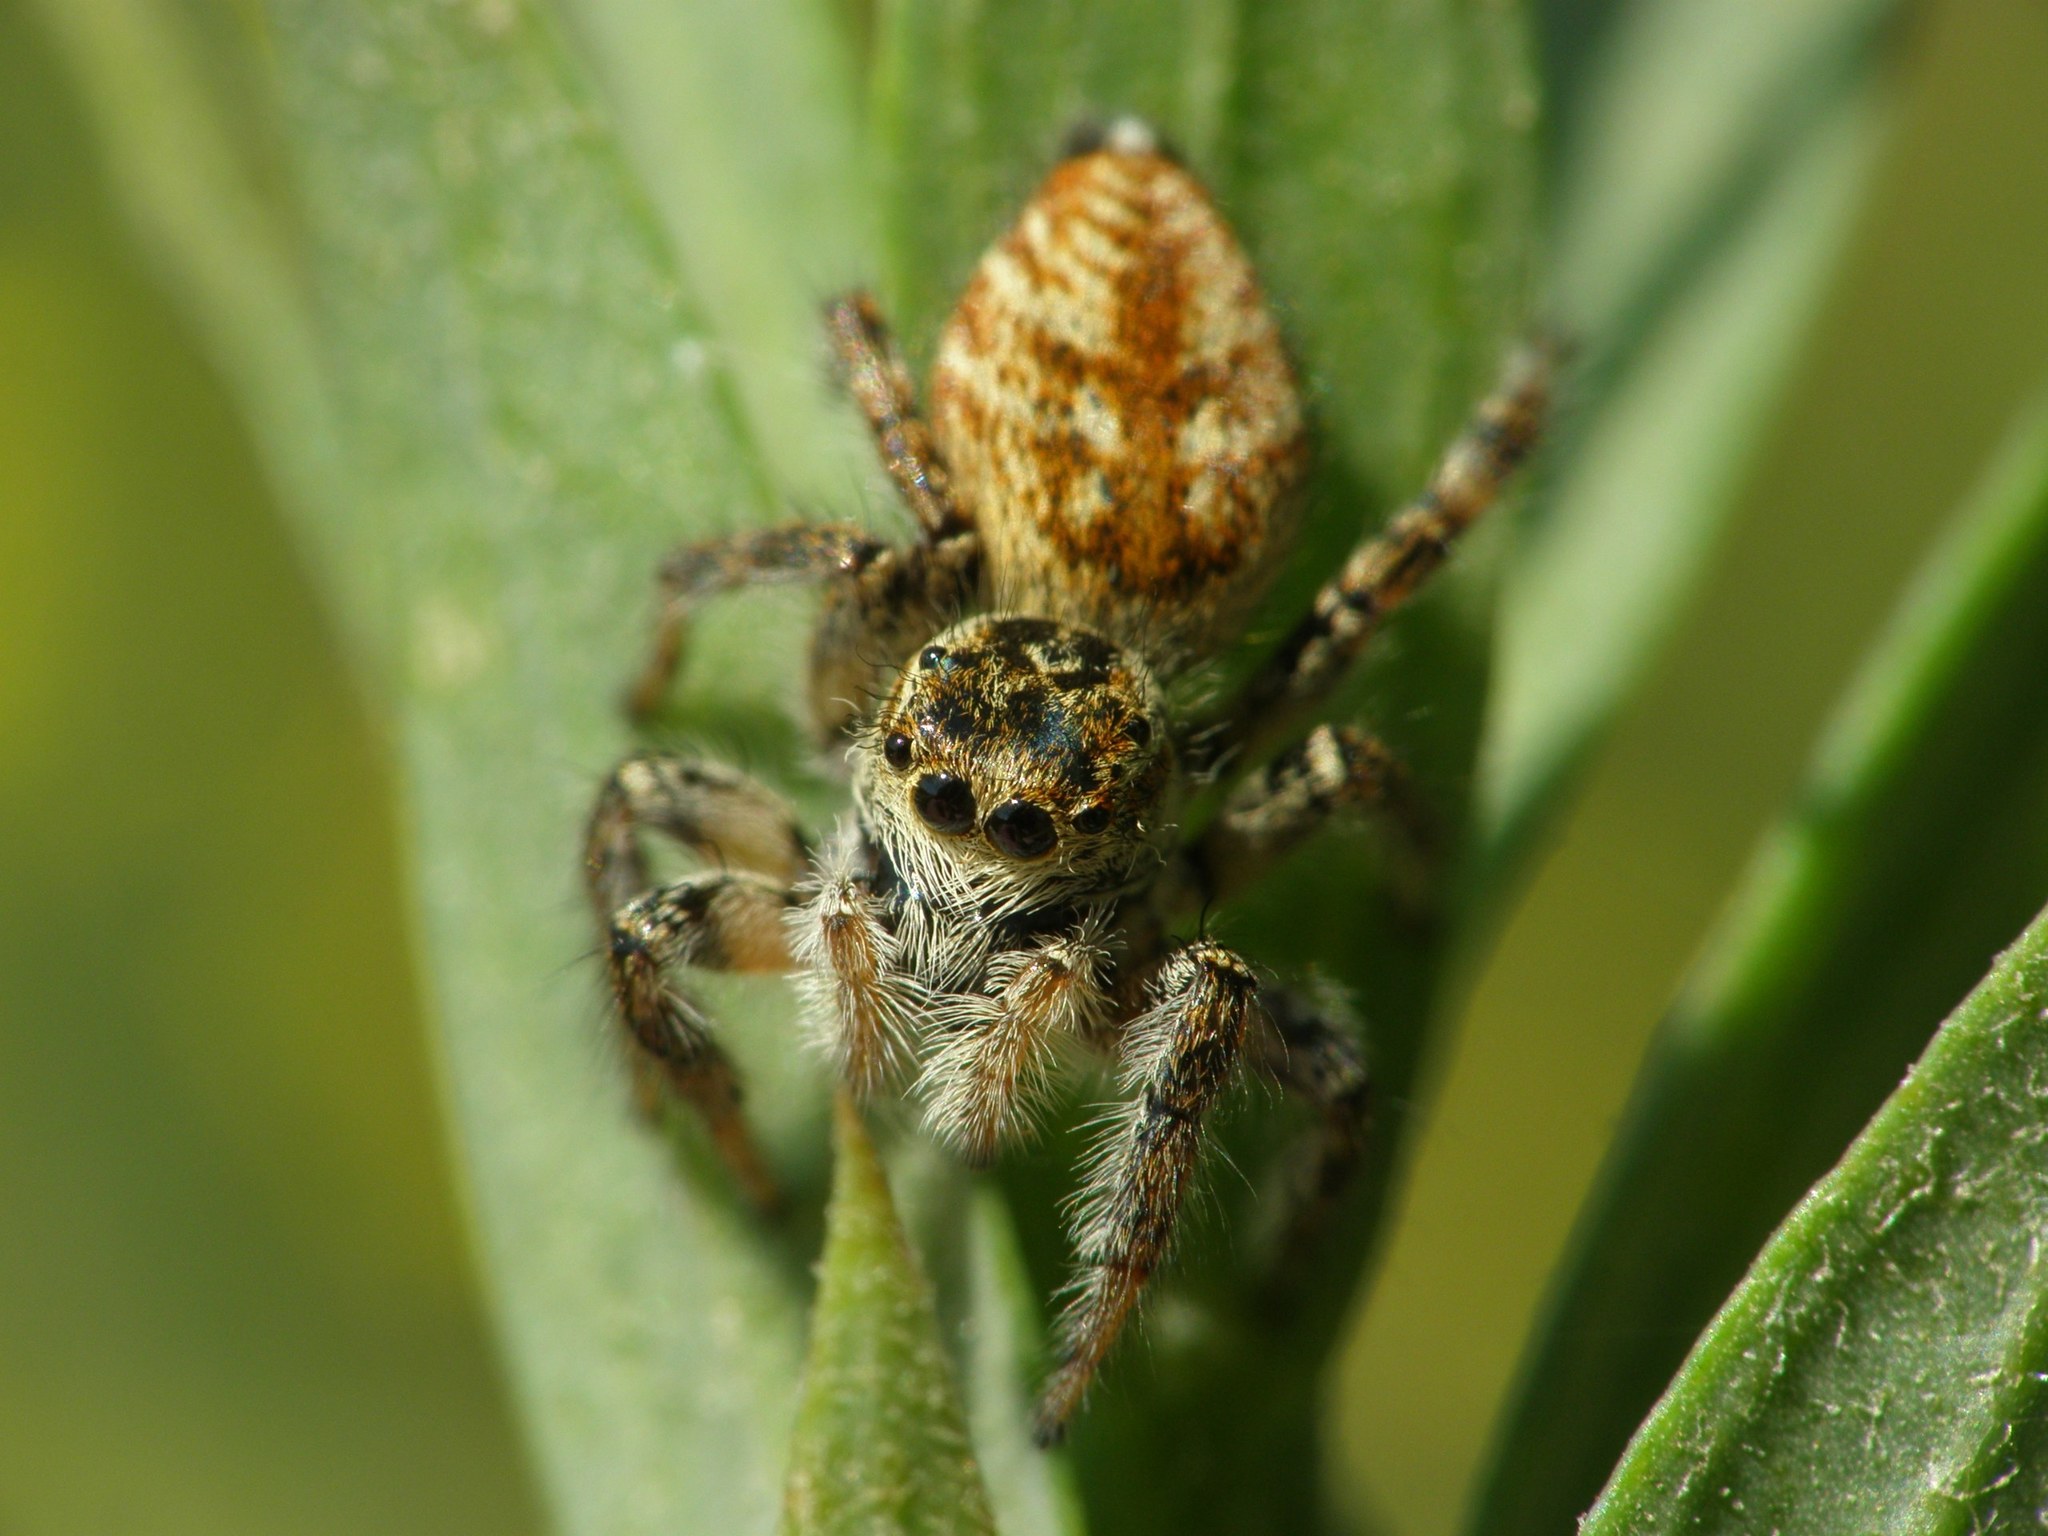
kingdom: Animalia
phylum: Arthropoda
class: Arachnida
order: Araneae
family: Salticidae
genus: Carrhotus
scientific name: Carrhotus xanthogramma
